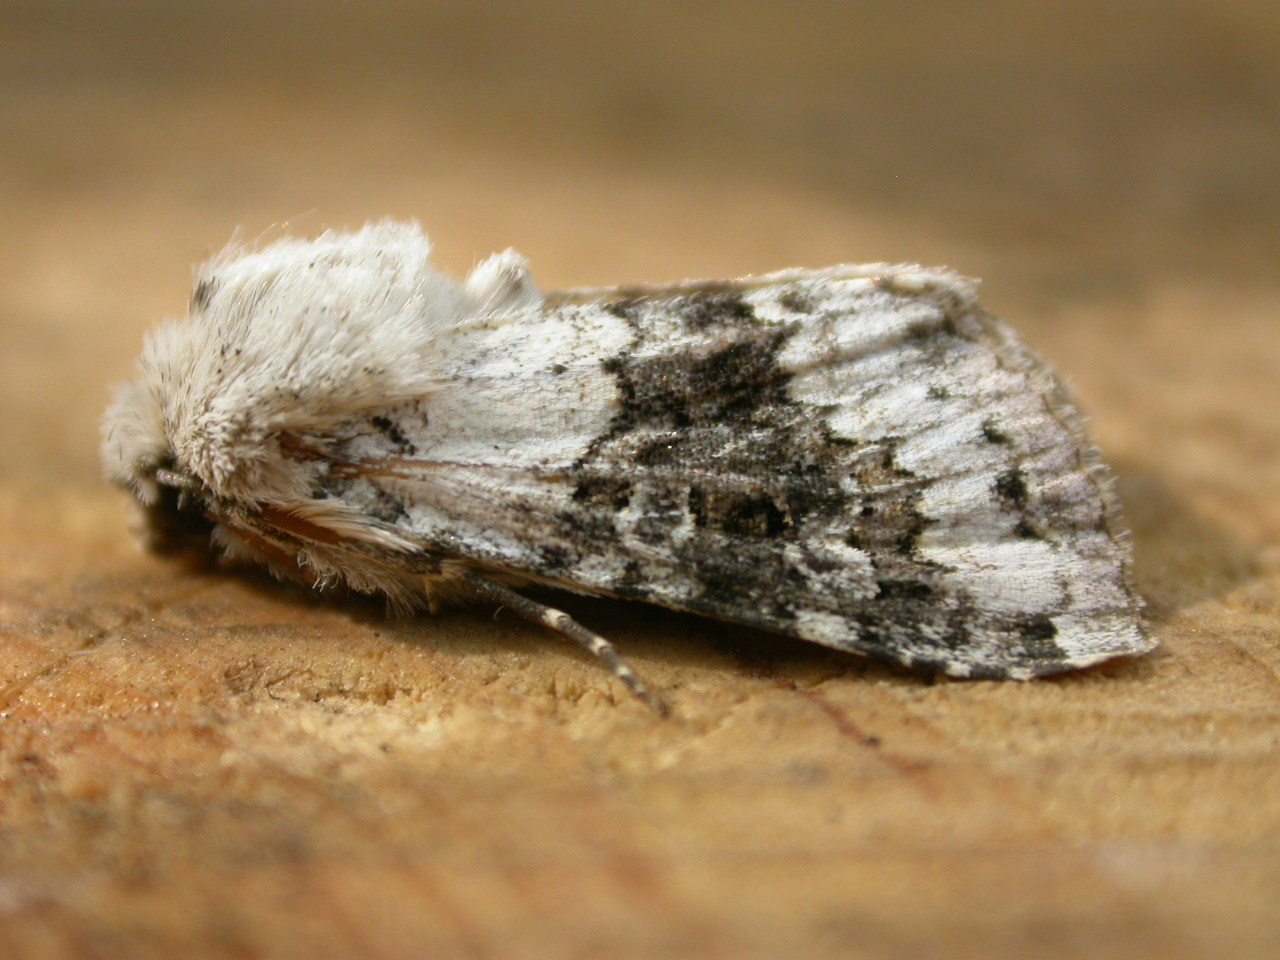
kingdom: Animalia
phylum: Arthropoda
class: Insecta
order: Lepidoptera
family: Noctuidae
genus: Hecatera
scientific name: Hecatera bicolorata
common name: Broad-barred white
